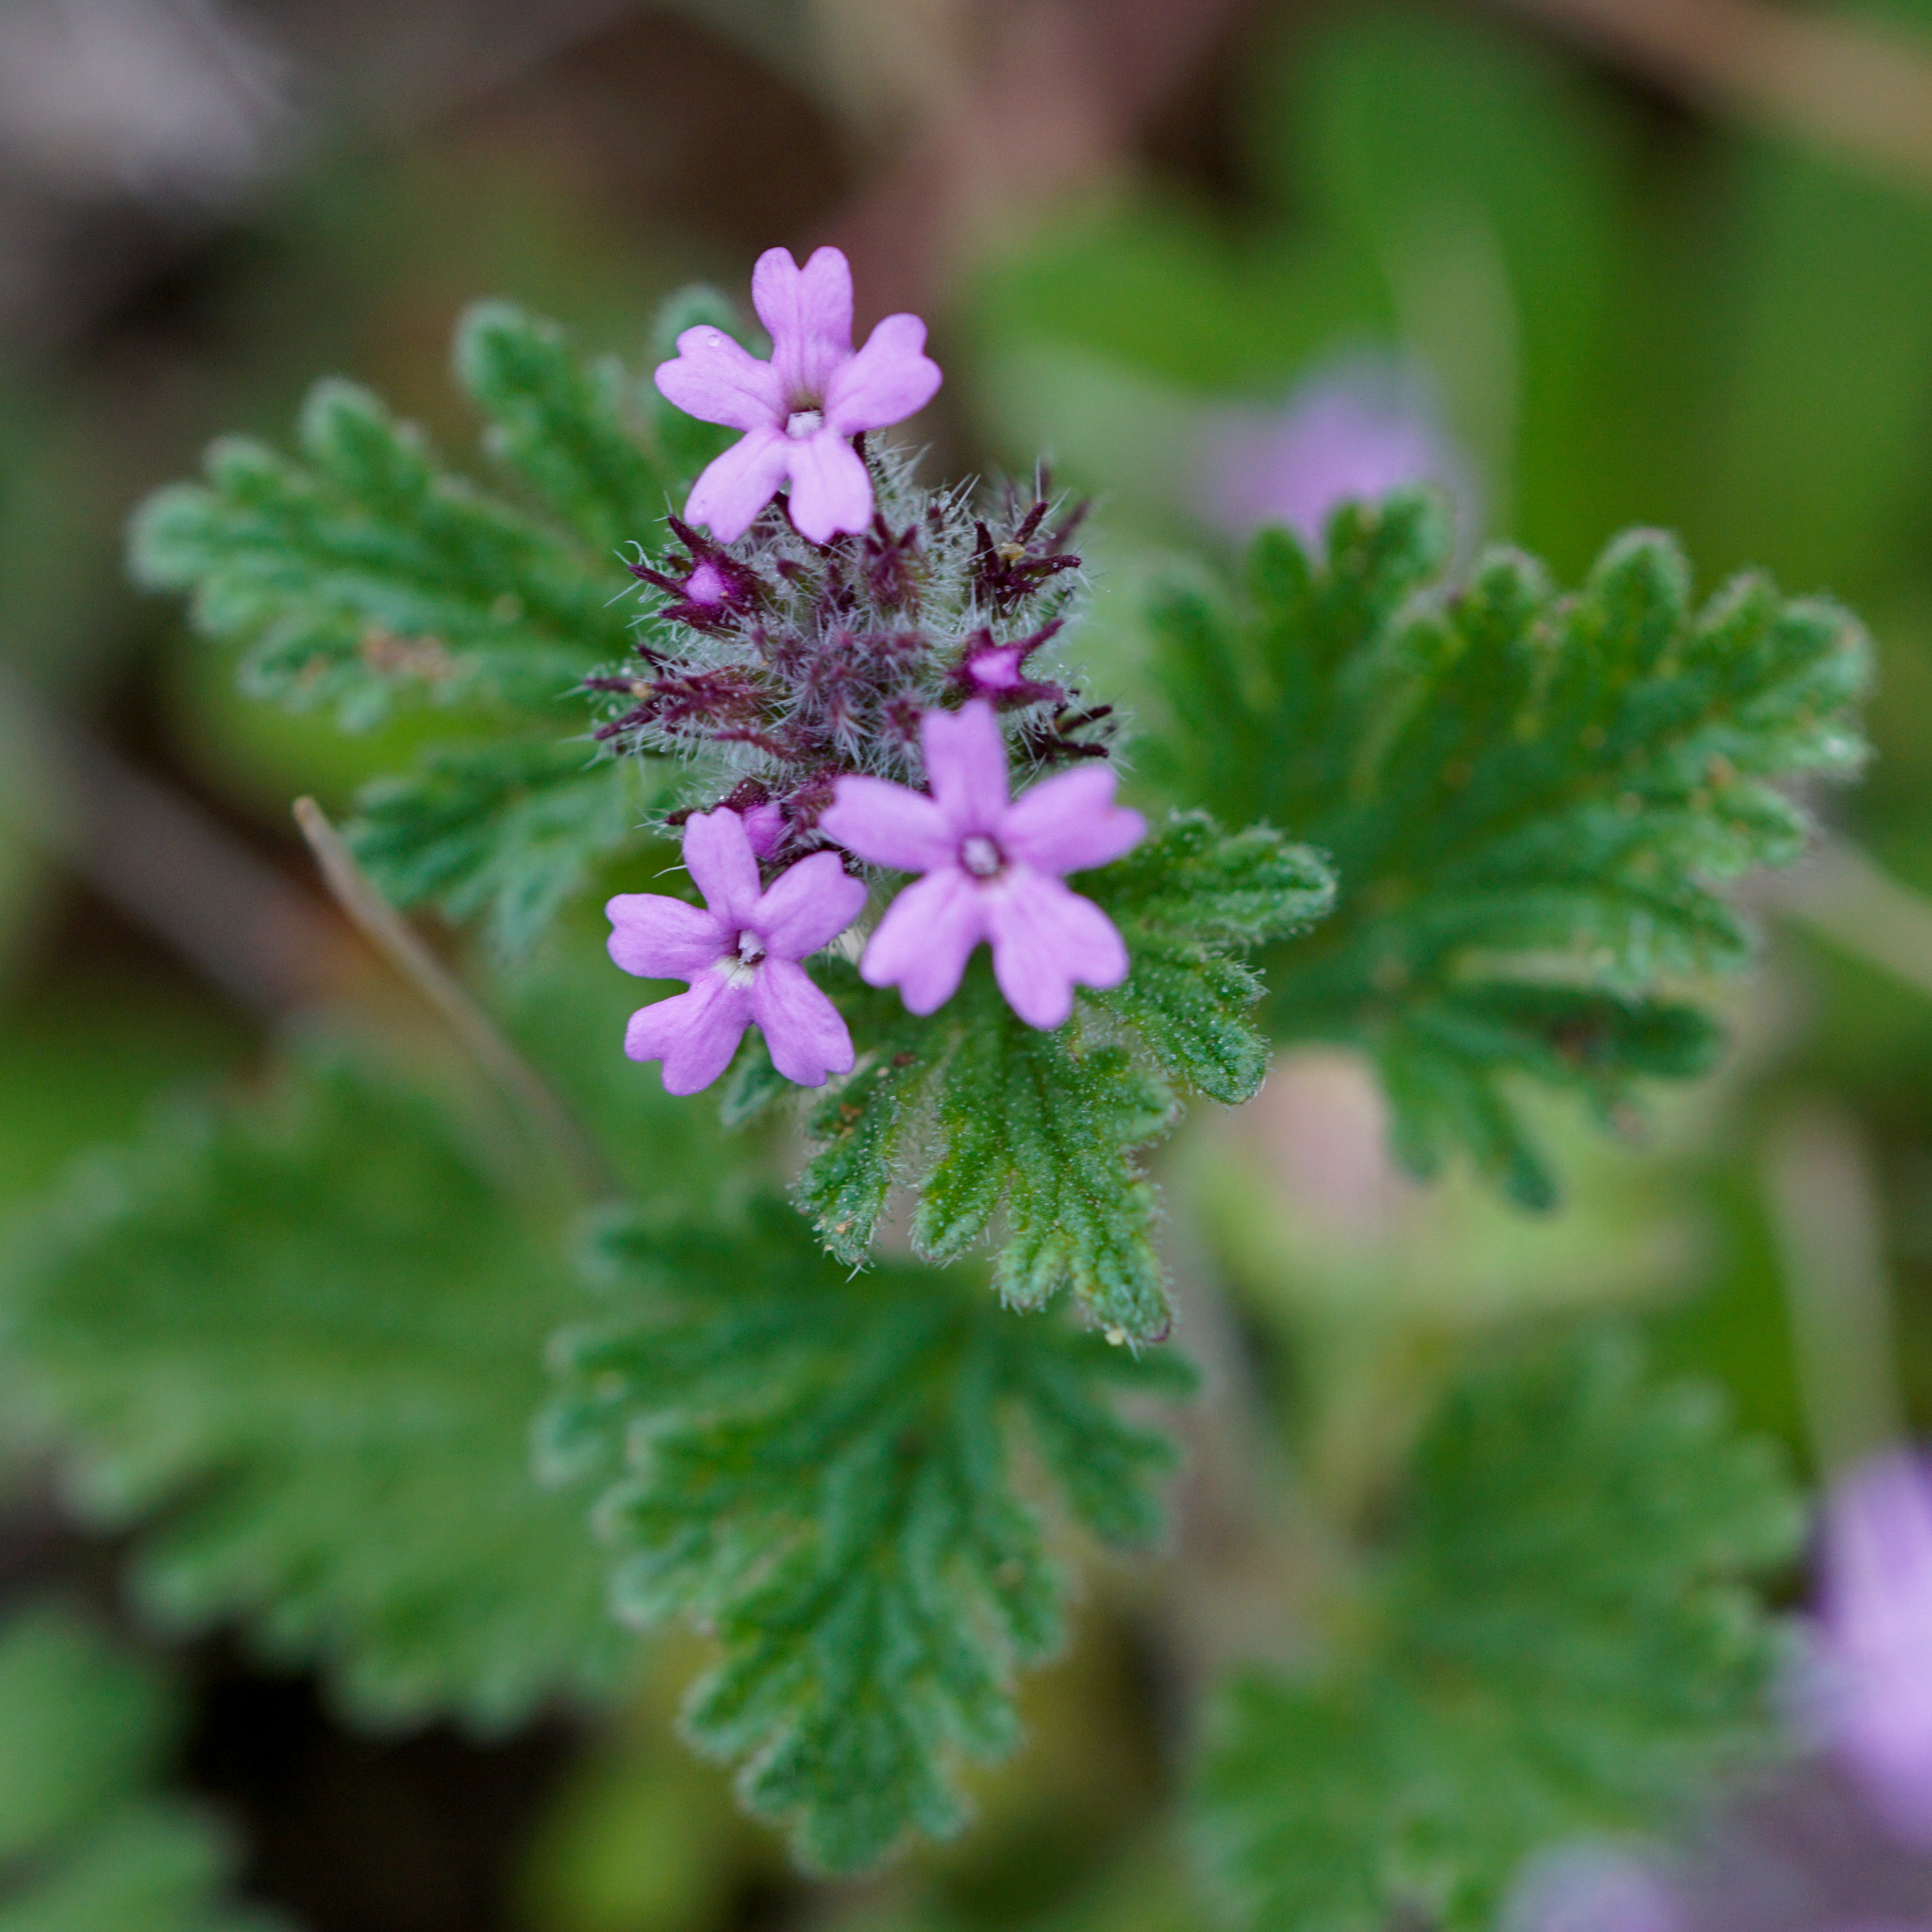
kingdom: Plantae
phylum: Tracheophyta
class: Magnoliopsida
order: Lamiales
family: Verbenaceae
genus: Verbena
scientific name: Verbena pumila
